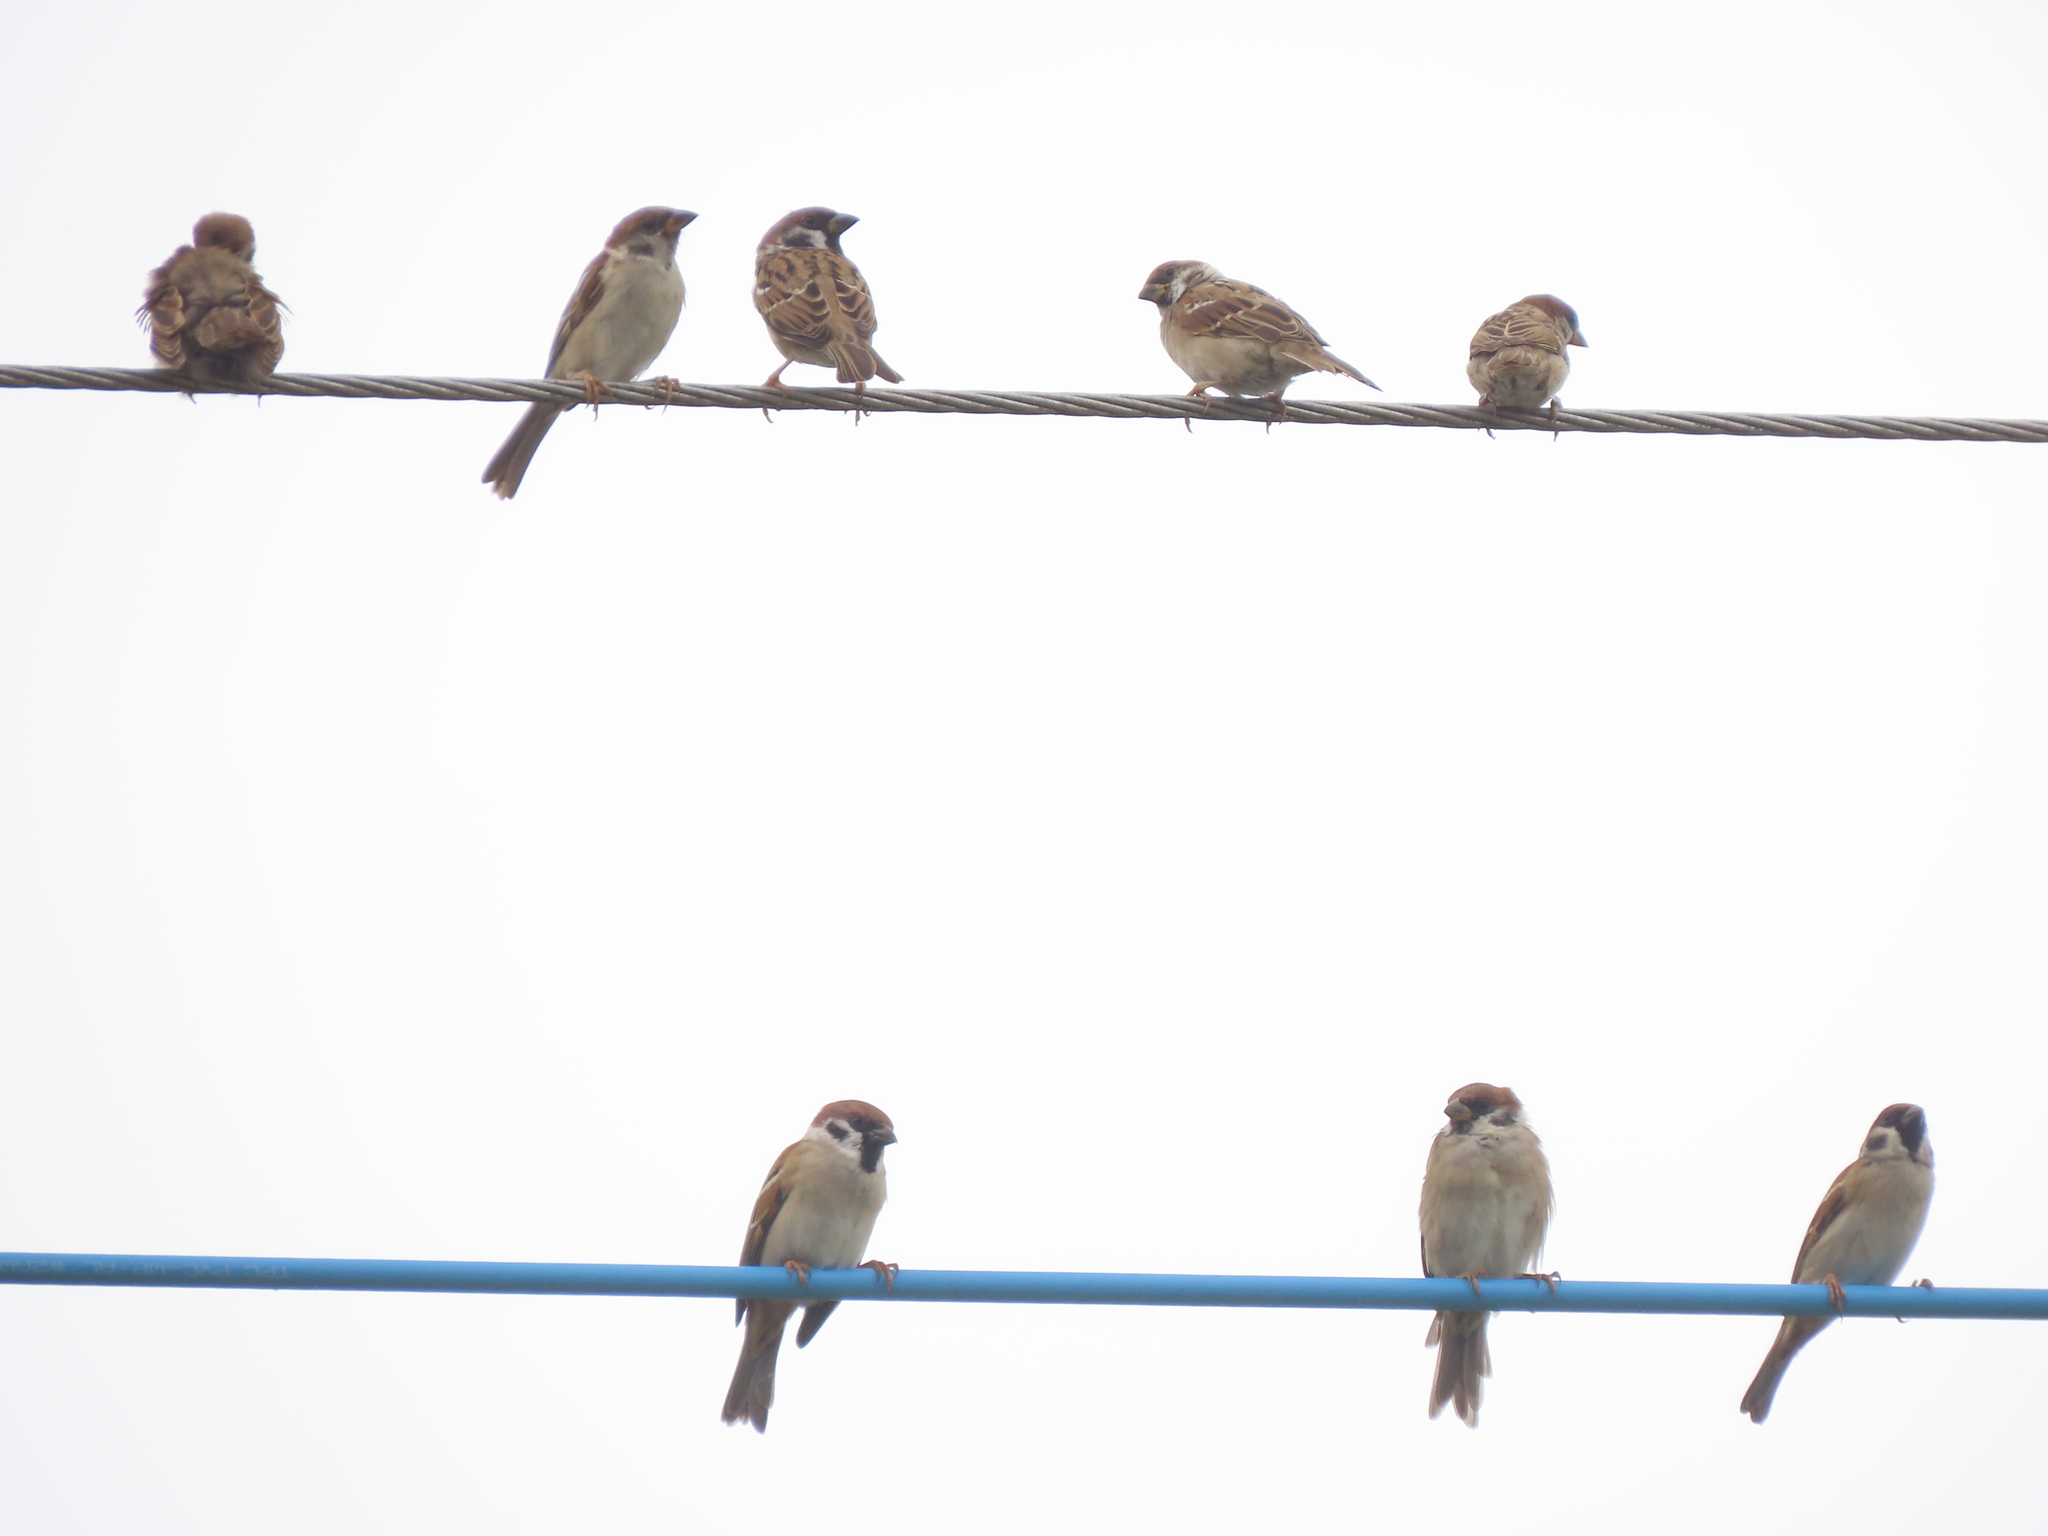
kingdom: Animalia
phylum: Chordata
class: Aves
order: Passeriformes
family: Passeridae
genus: Passer
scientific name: Passer montanus
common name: Eurasian tree sparrow
